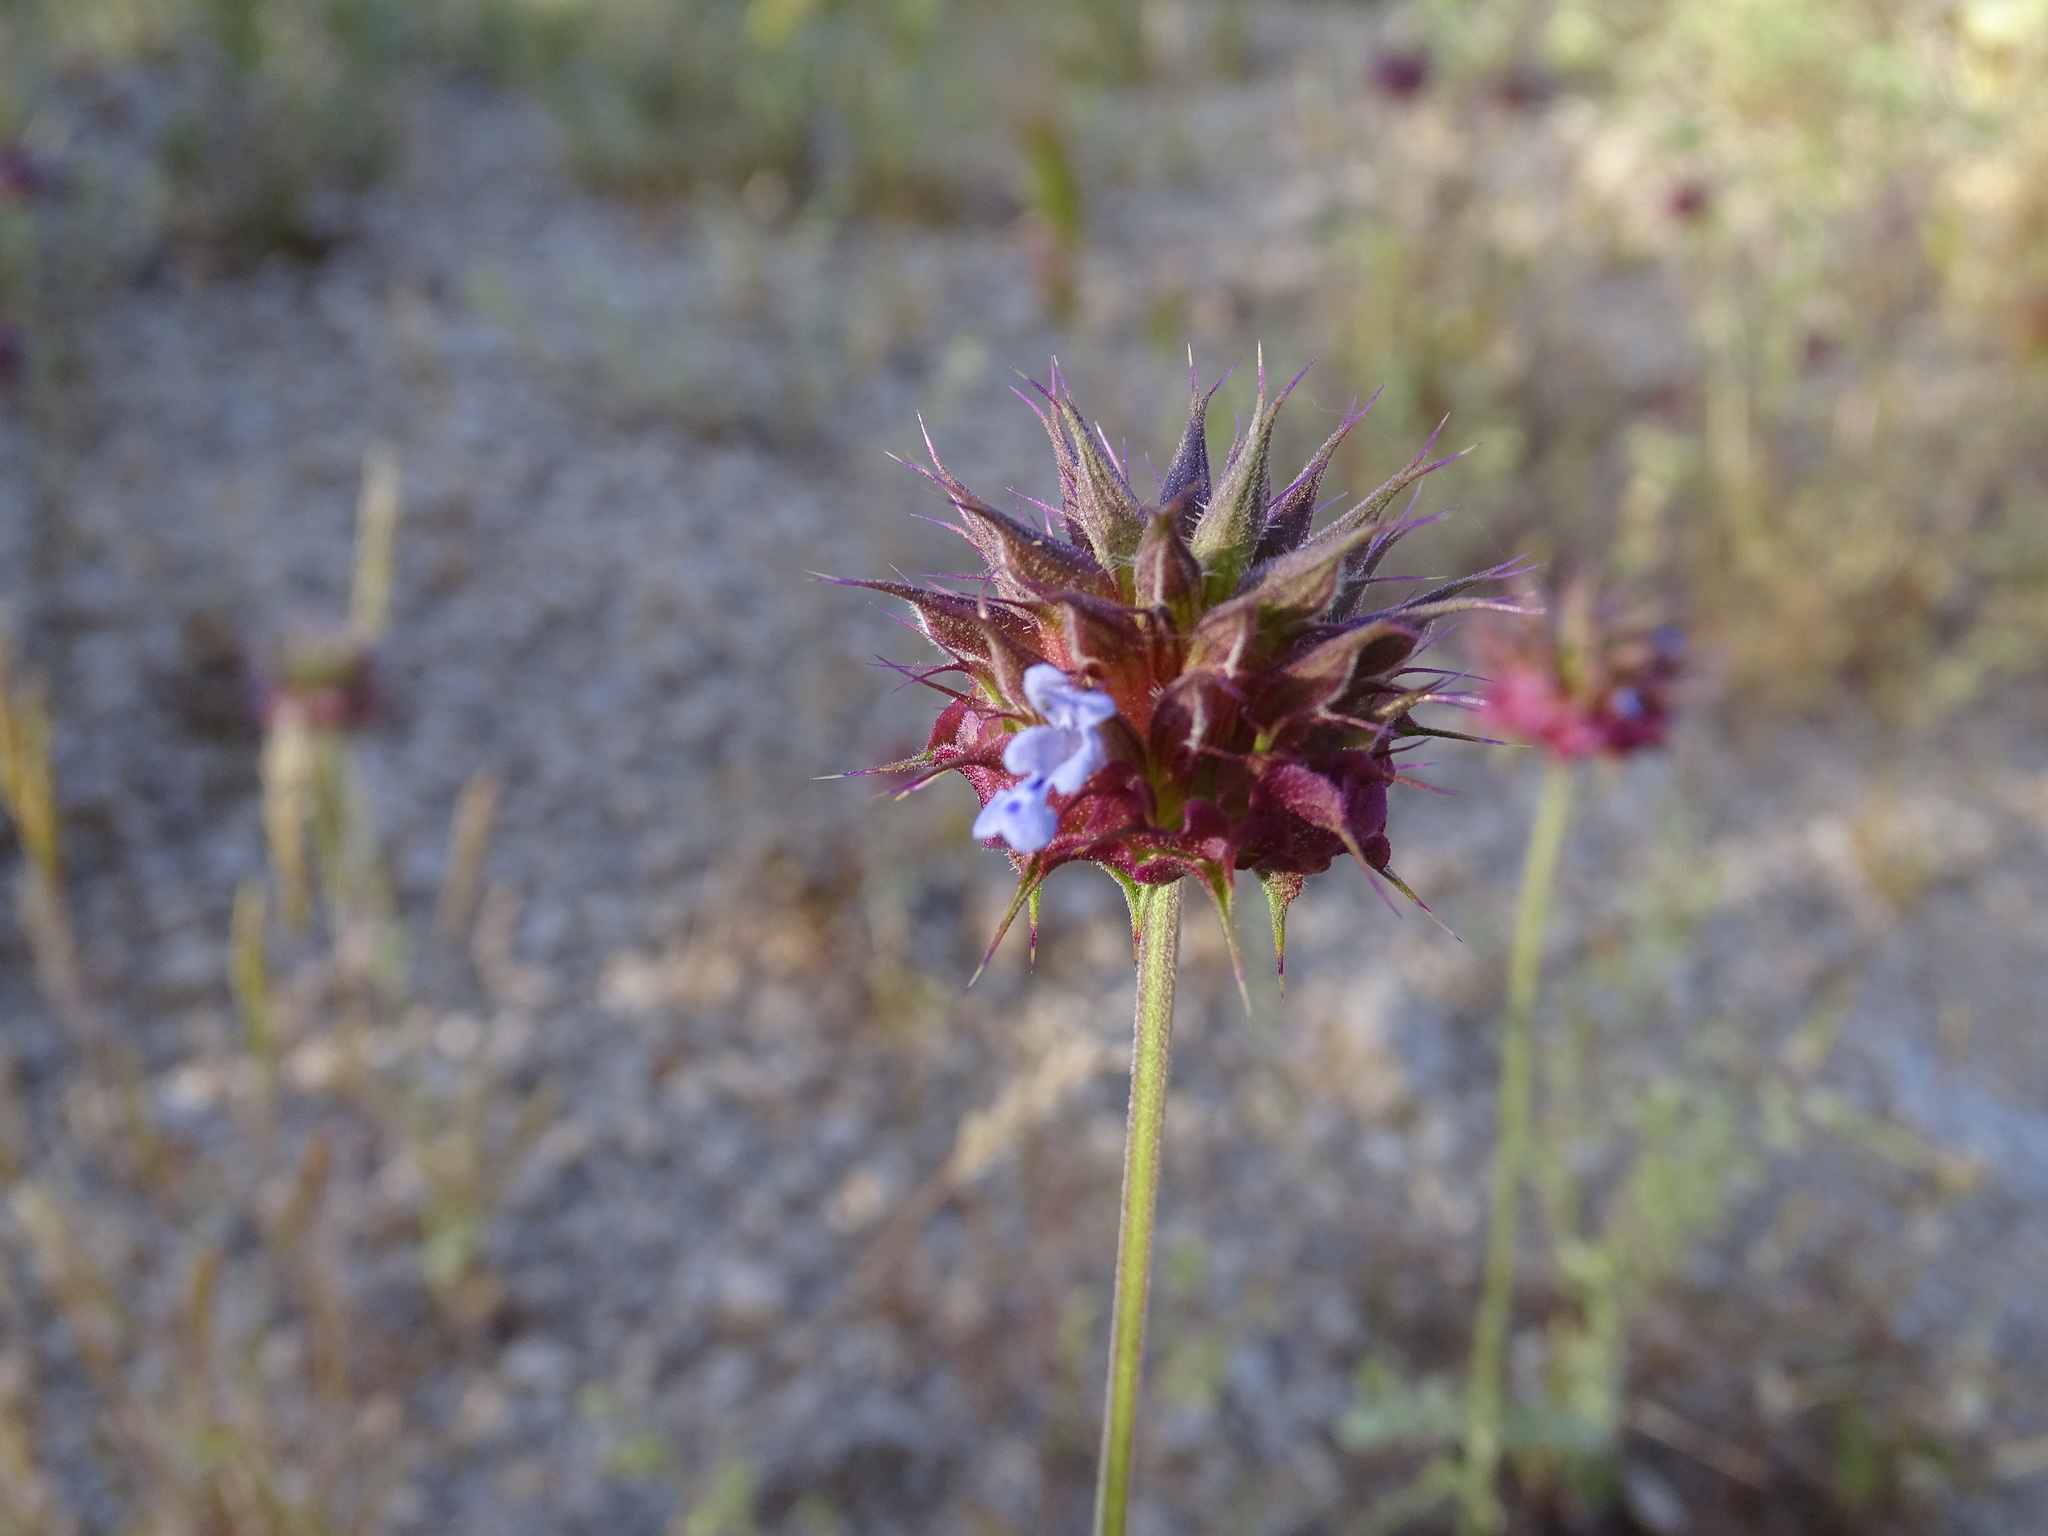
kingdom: Plantae
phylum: Tracheophyta
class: Magnoliopsida
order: Lamiales
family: Lamiaceae
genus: Salvia
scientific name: Salvia columbariae
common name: Chia
